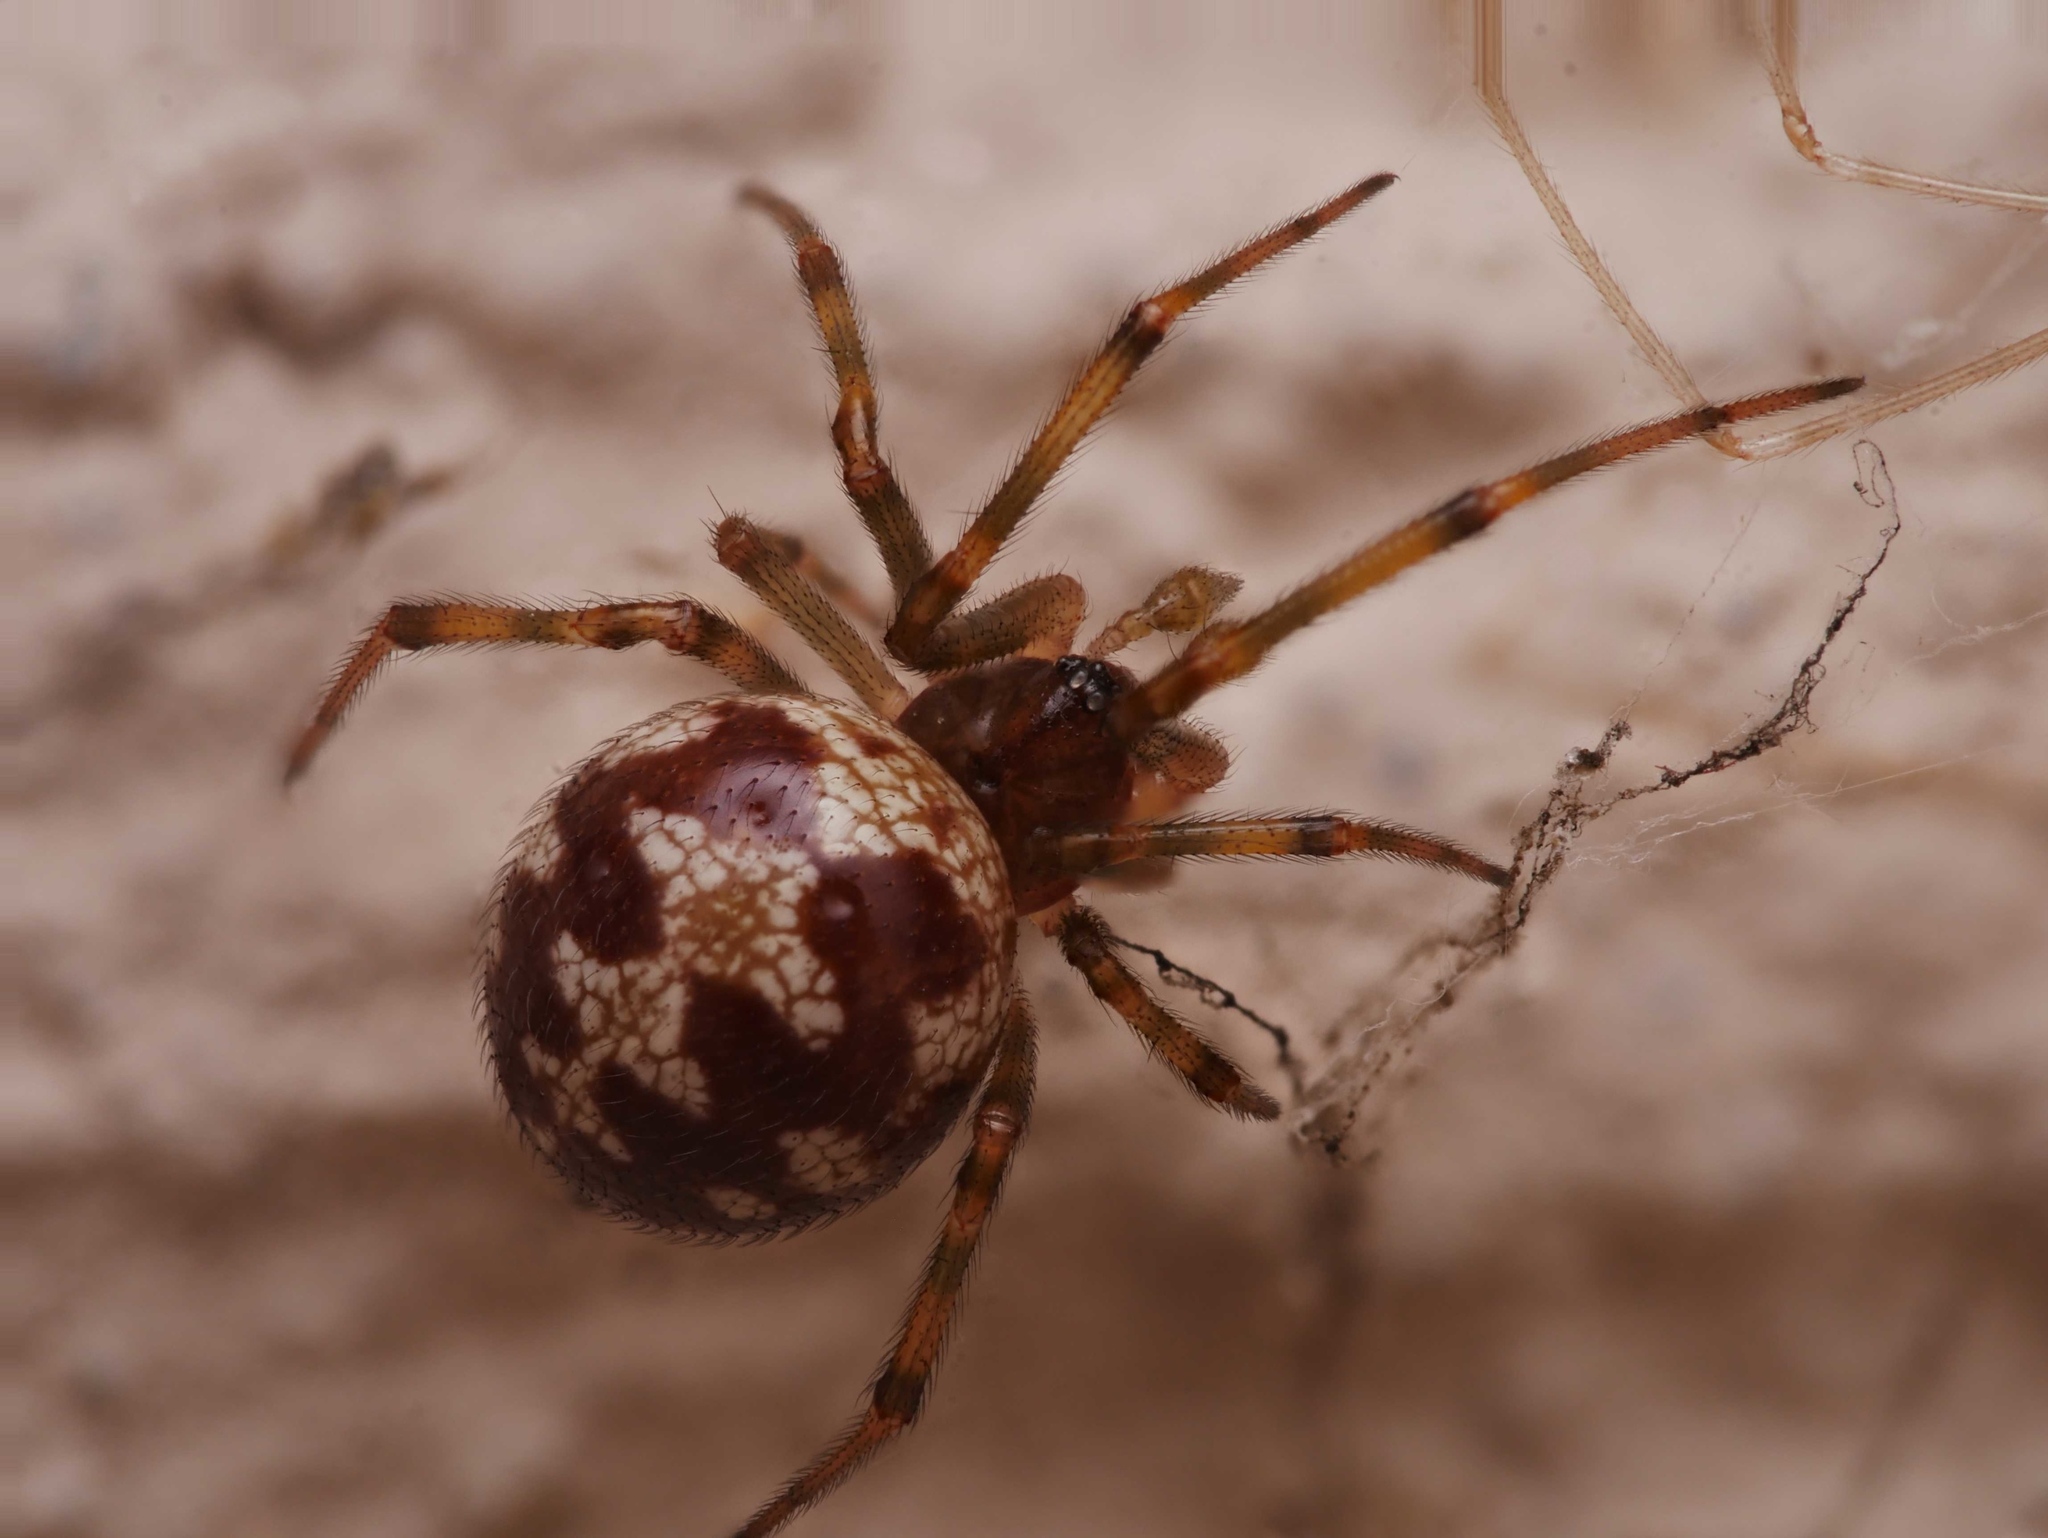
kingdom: Animalia
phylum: Arthropoda
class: Arachnida
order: Araneae
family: Theridiidae
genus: Steatoda
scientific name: Steatoda triangulosa
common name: Triangulate bud spider
